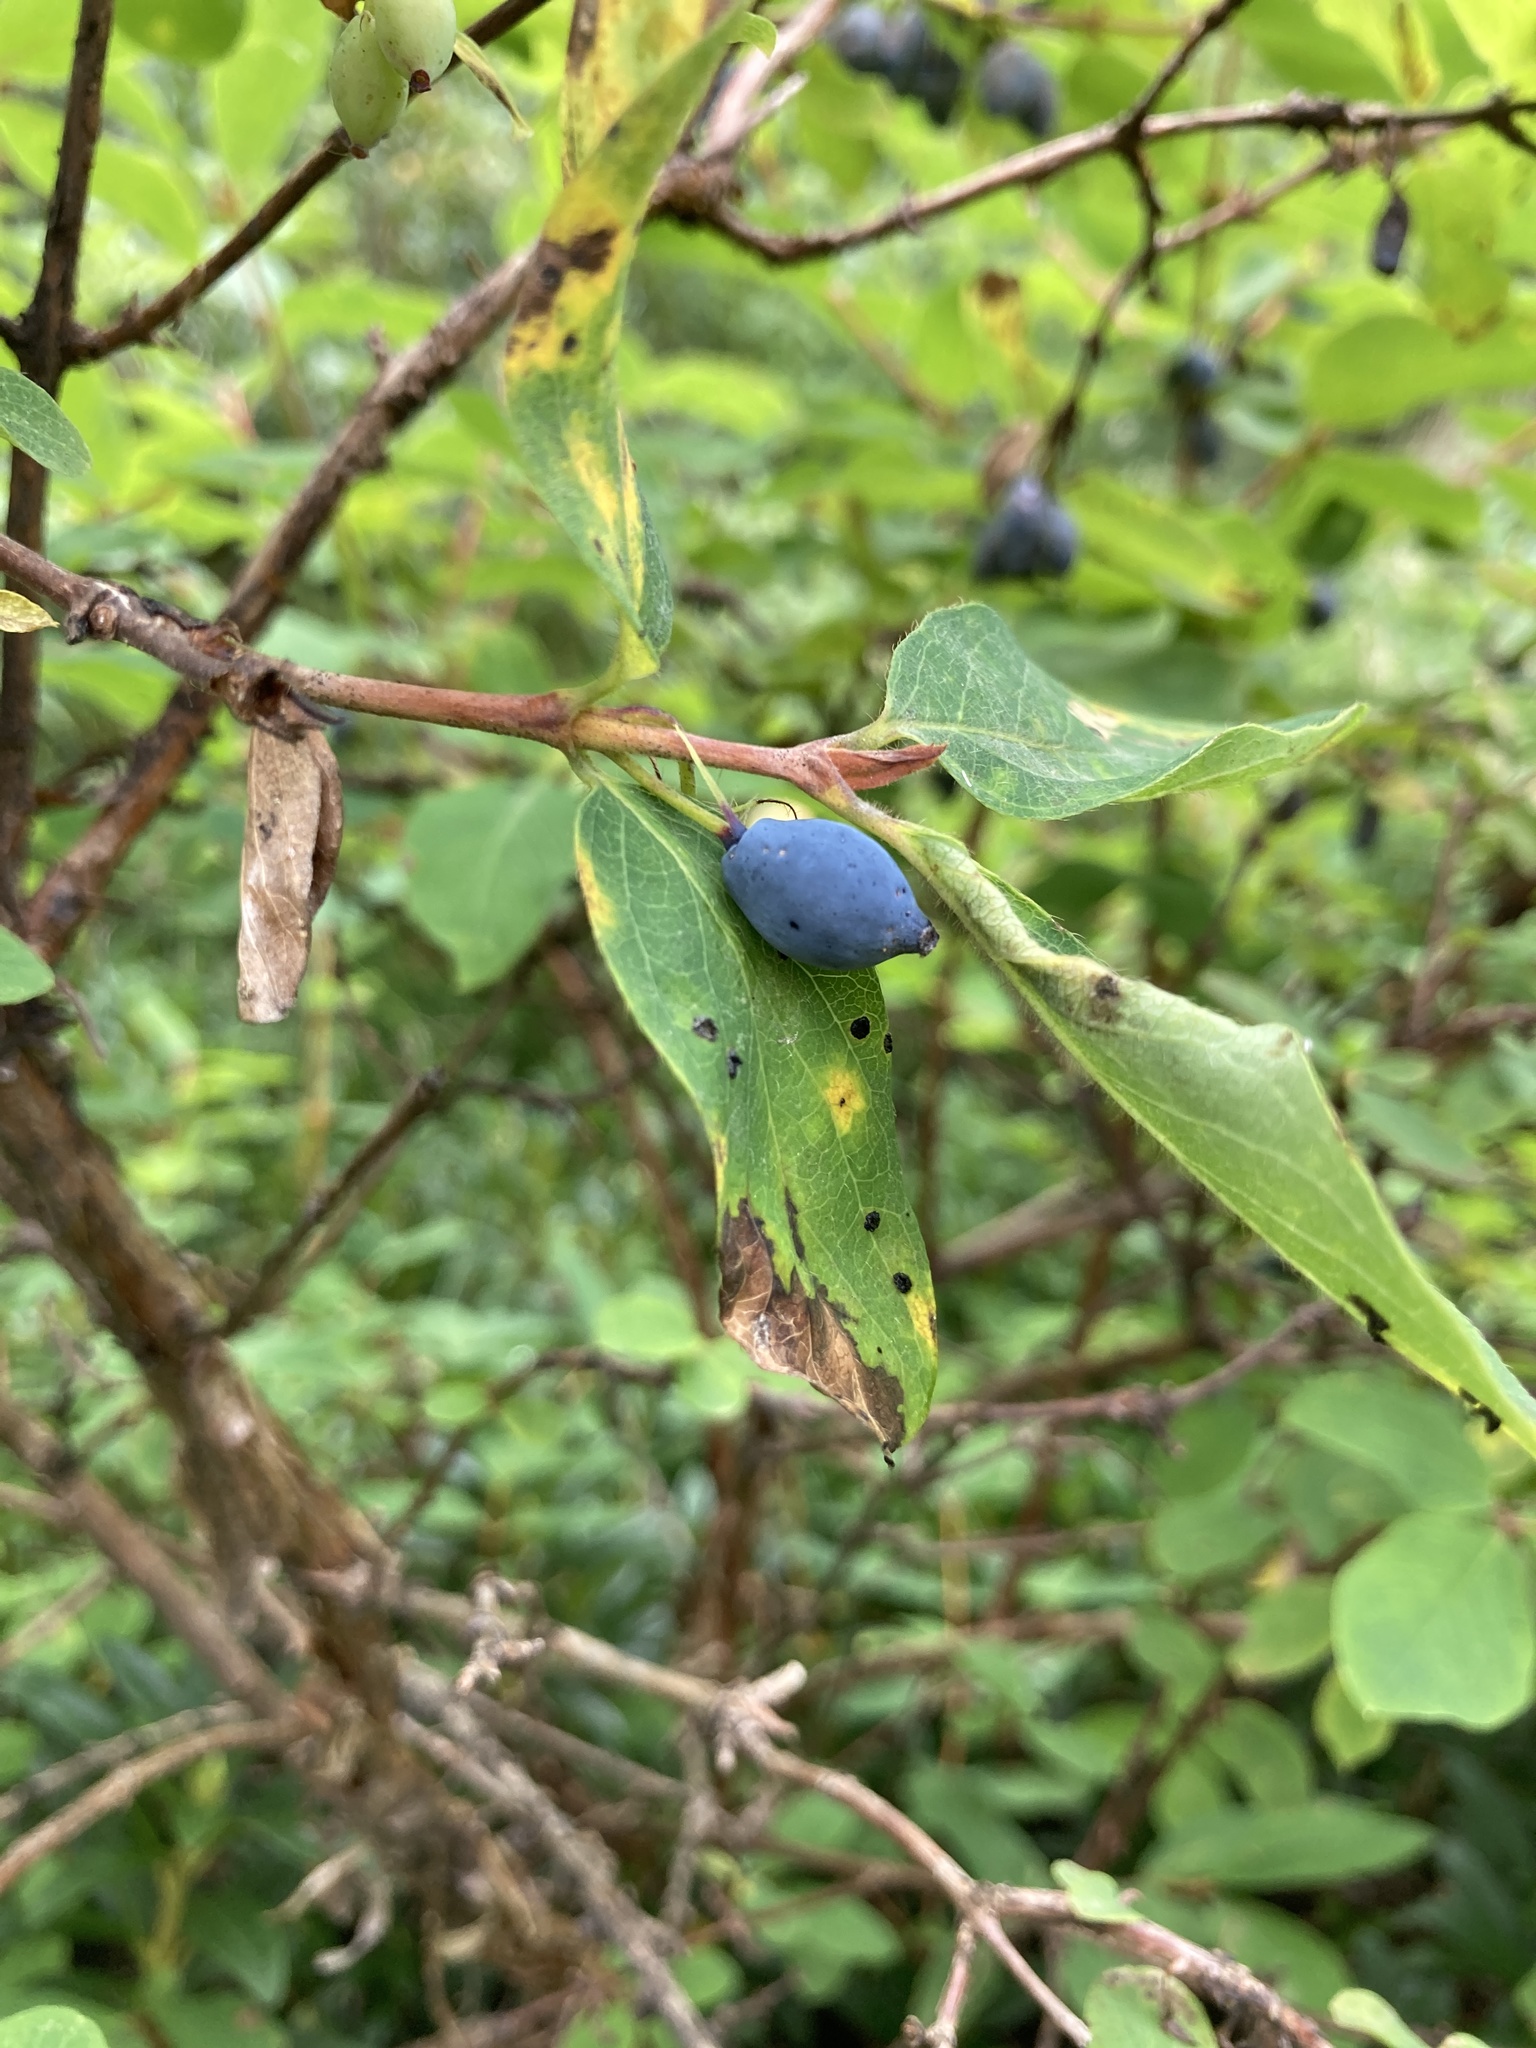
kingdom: Plantae
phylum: Tracheophyta
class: Magnoliopsida
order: Dipsacales
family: Caprifoliaceae
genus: Lonicera
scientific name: Lonicera caerulea
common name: Blue honeysuckle
